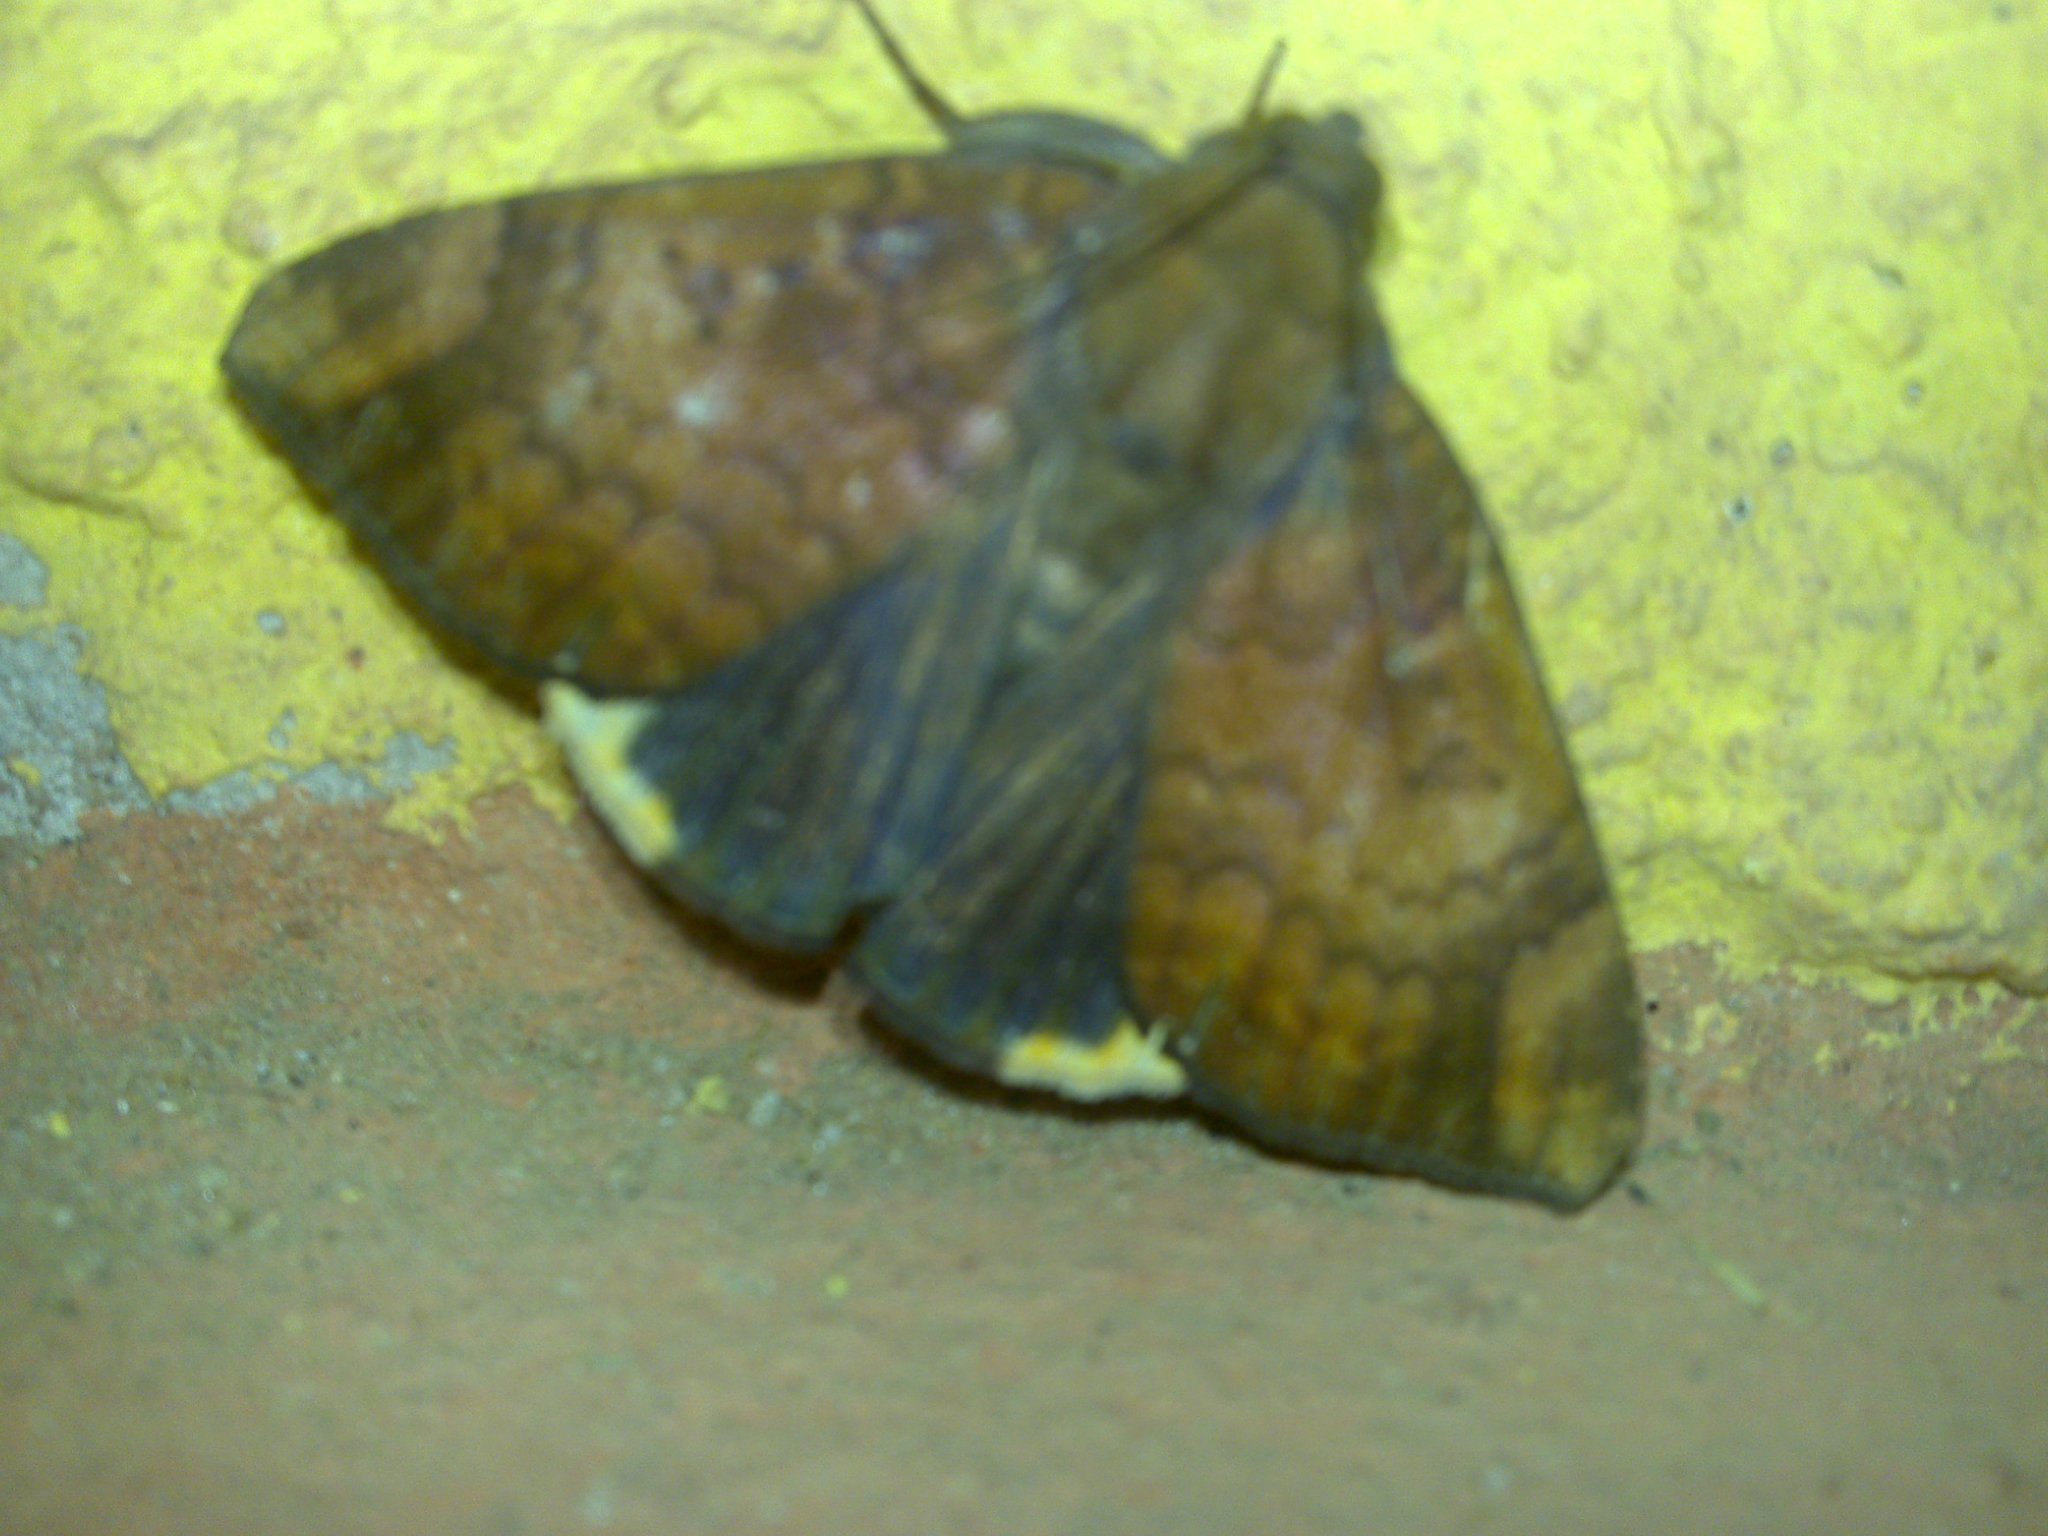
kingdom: Animalia
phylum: Arthropoda
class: Insecta
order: Lepidoptera
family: Erebidae
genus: Achaea
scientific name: Achaea ezea
